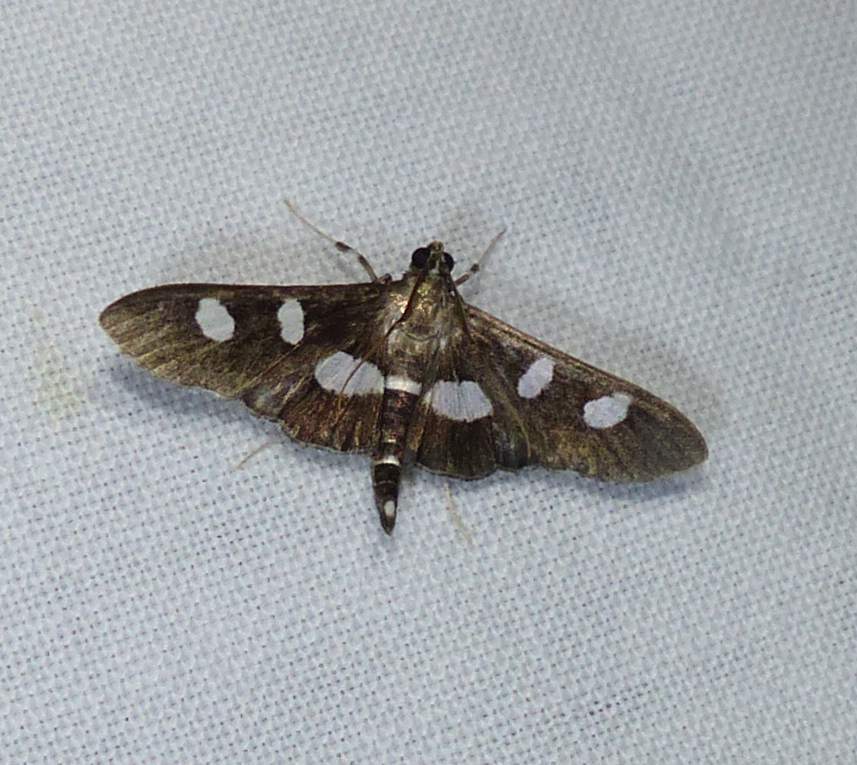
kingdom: Animalia
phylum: Arthropoda
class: Insecta
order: Lepidoptera
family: Crambidae
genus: Desmia
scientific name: Desmia
